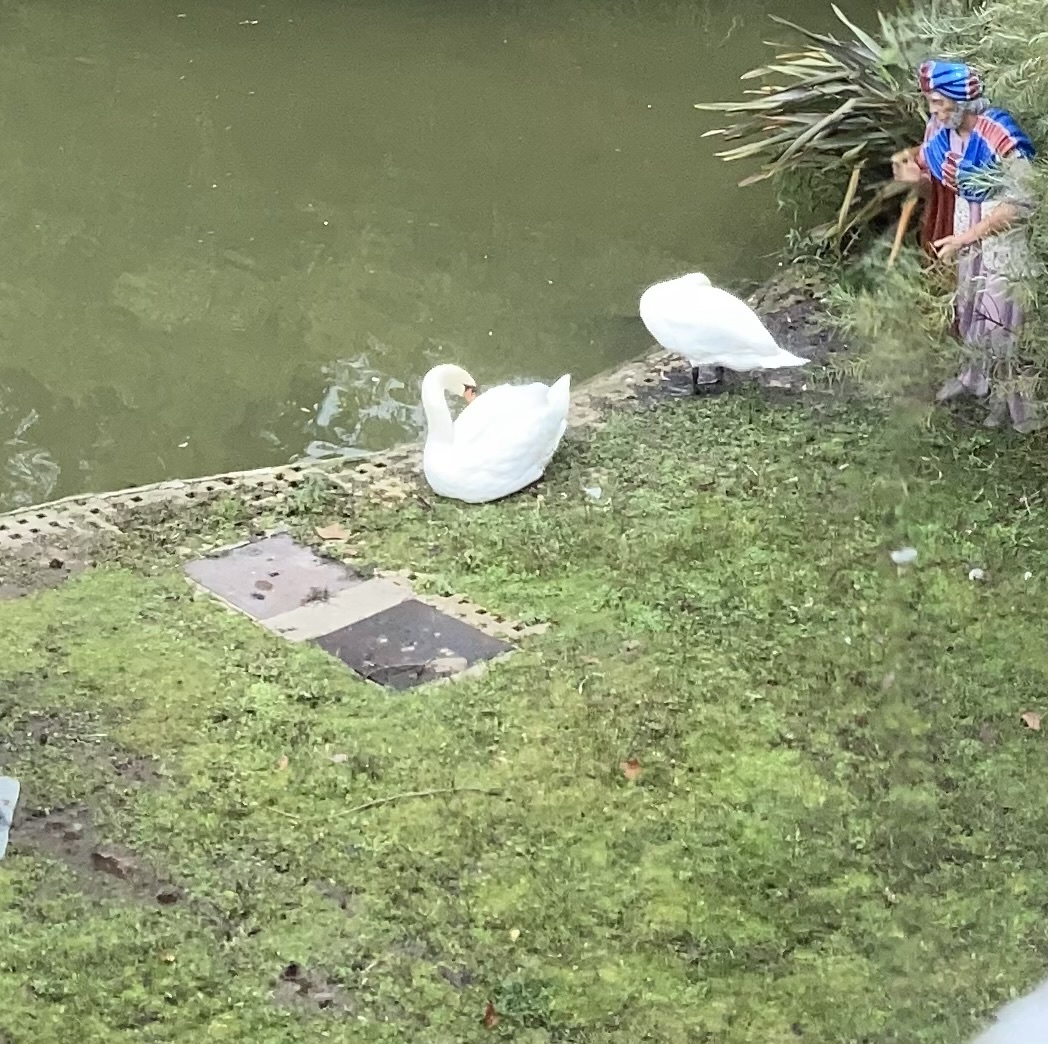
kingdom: Animalia
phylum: Chordata
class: Aves
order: Anseriformes
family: Anatidae
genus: Cygnus
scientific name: Cygnus olor
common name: Mute swan
